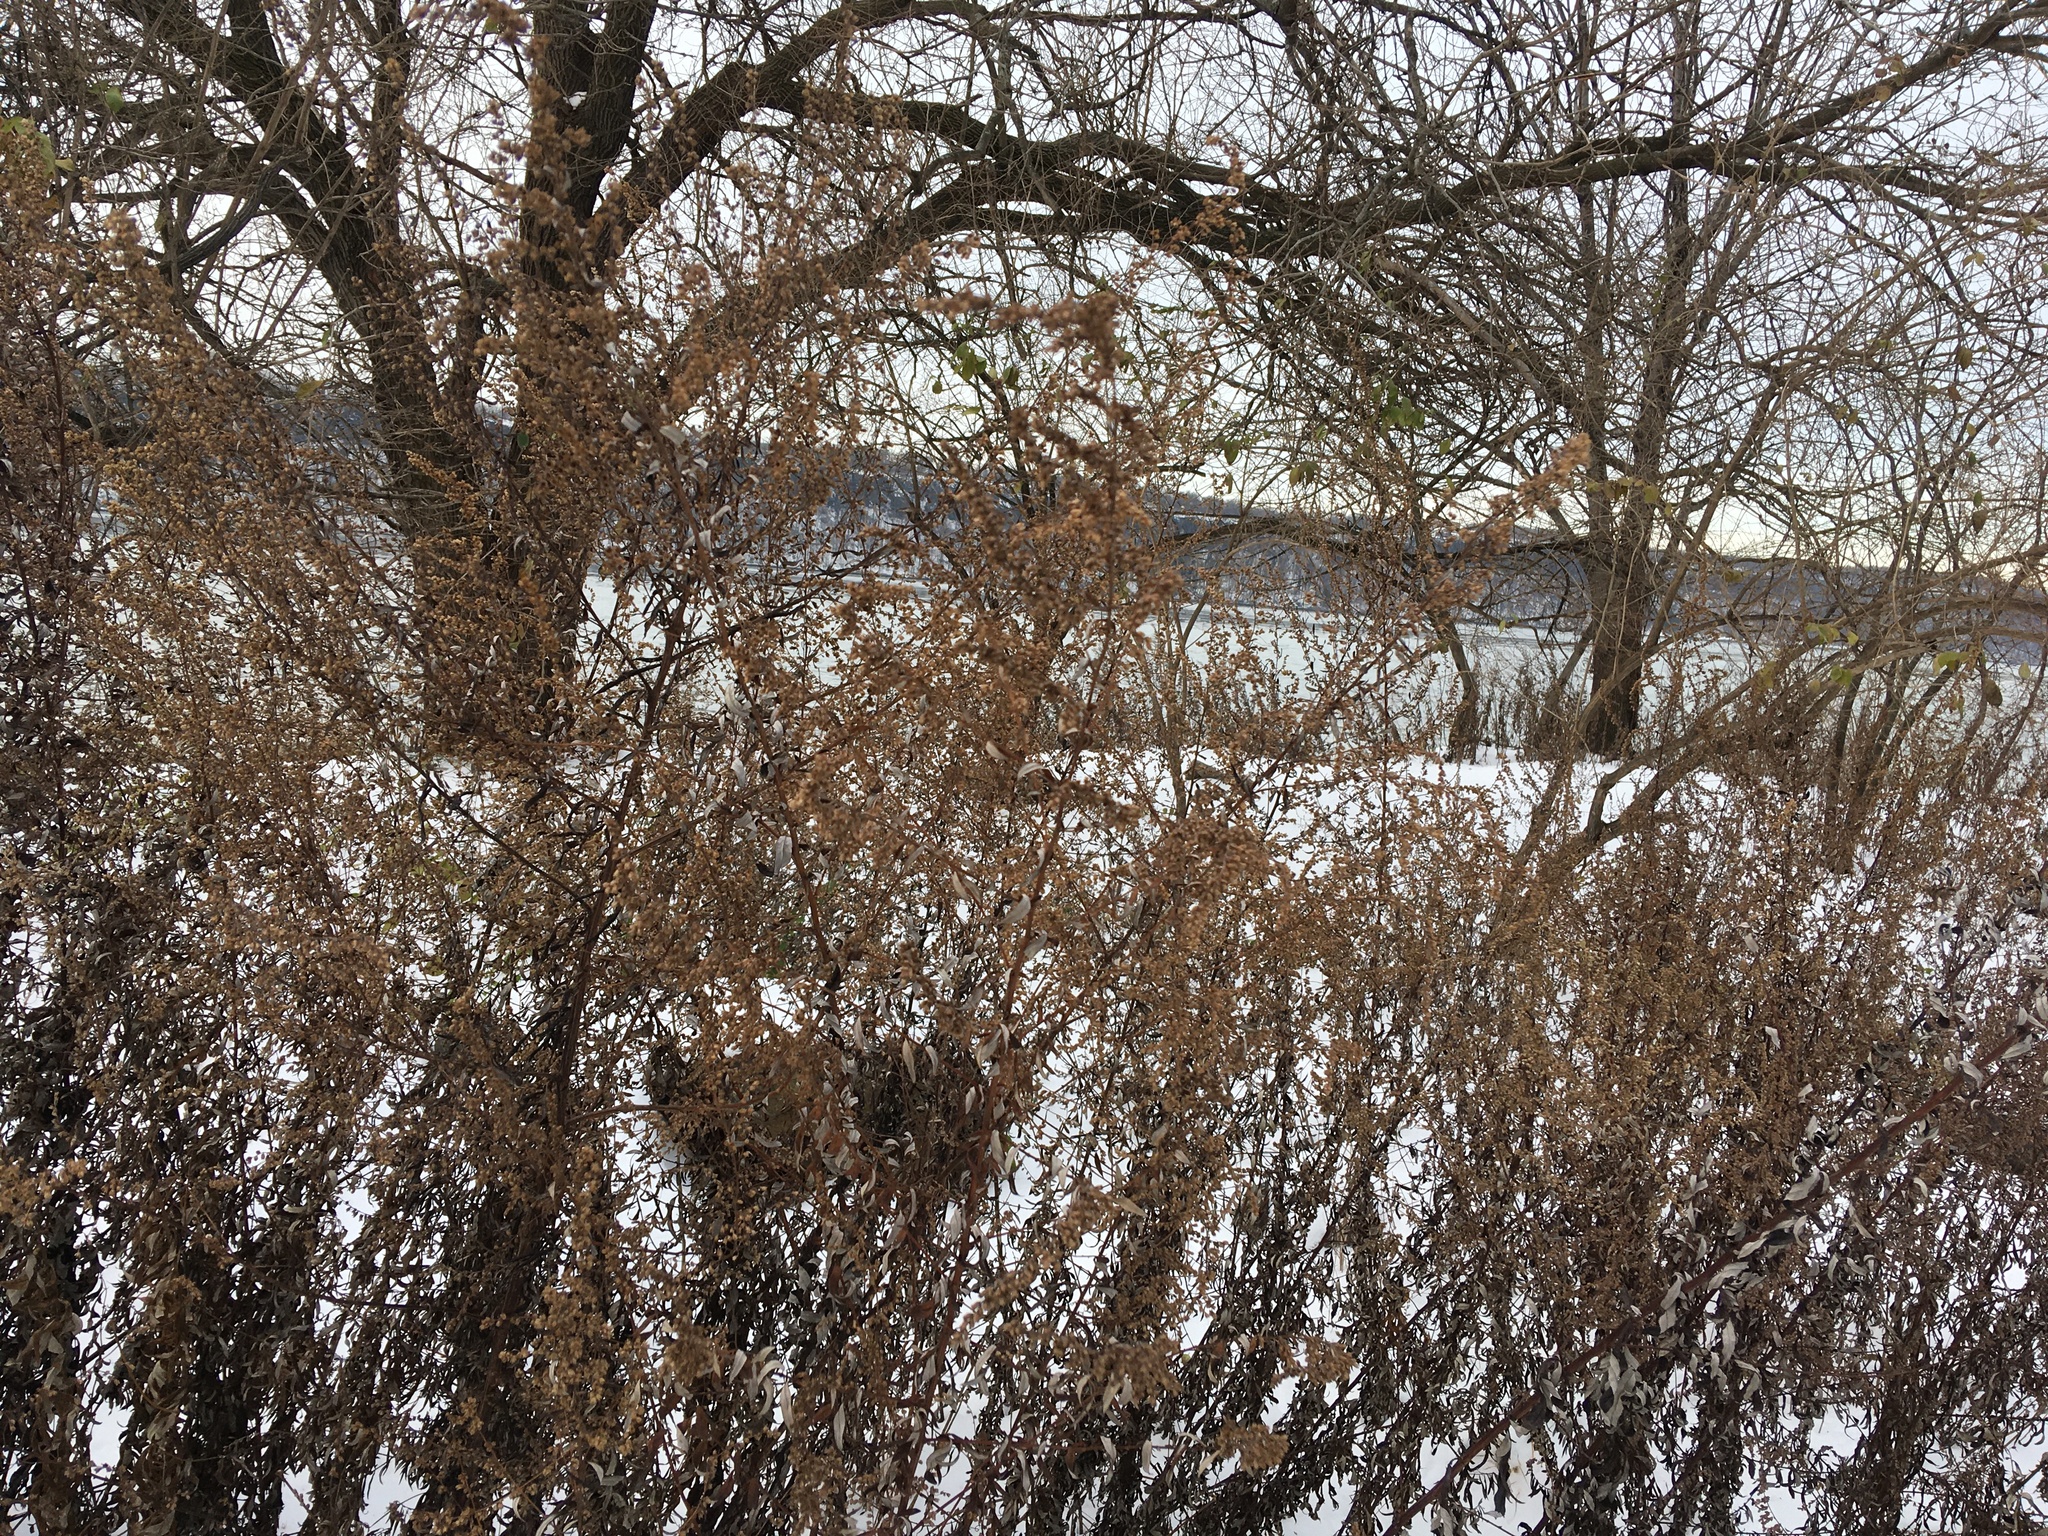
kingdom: Plantae
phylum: Tracheophyta
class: Magnoliopsida
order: Asterales
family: Asteraceae
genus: Artemisia
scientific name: Artemisia vulgaris
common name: Mugwort
